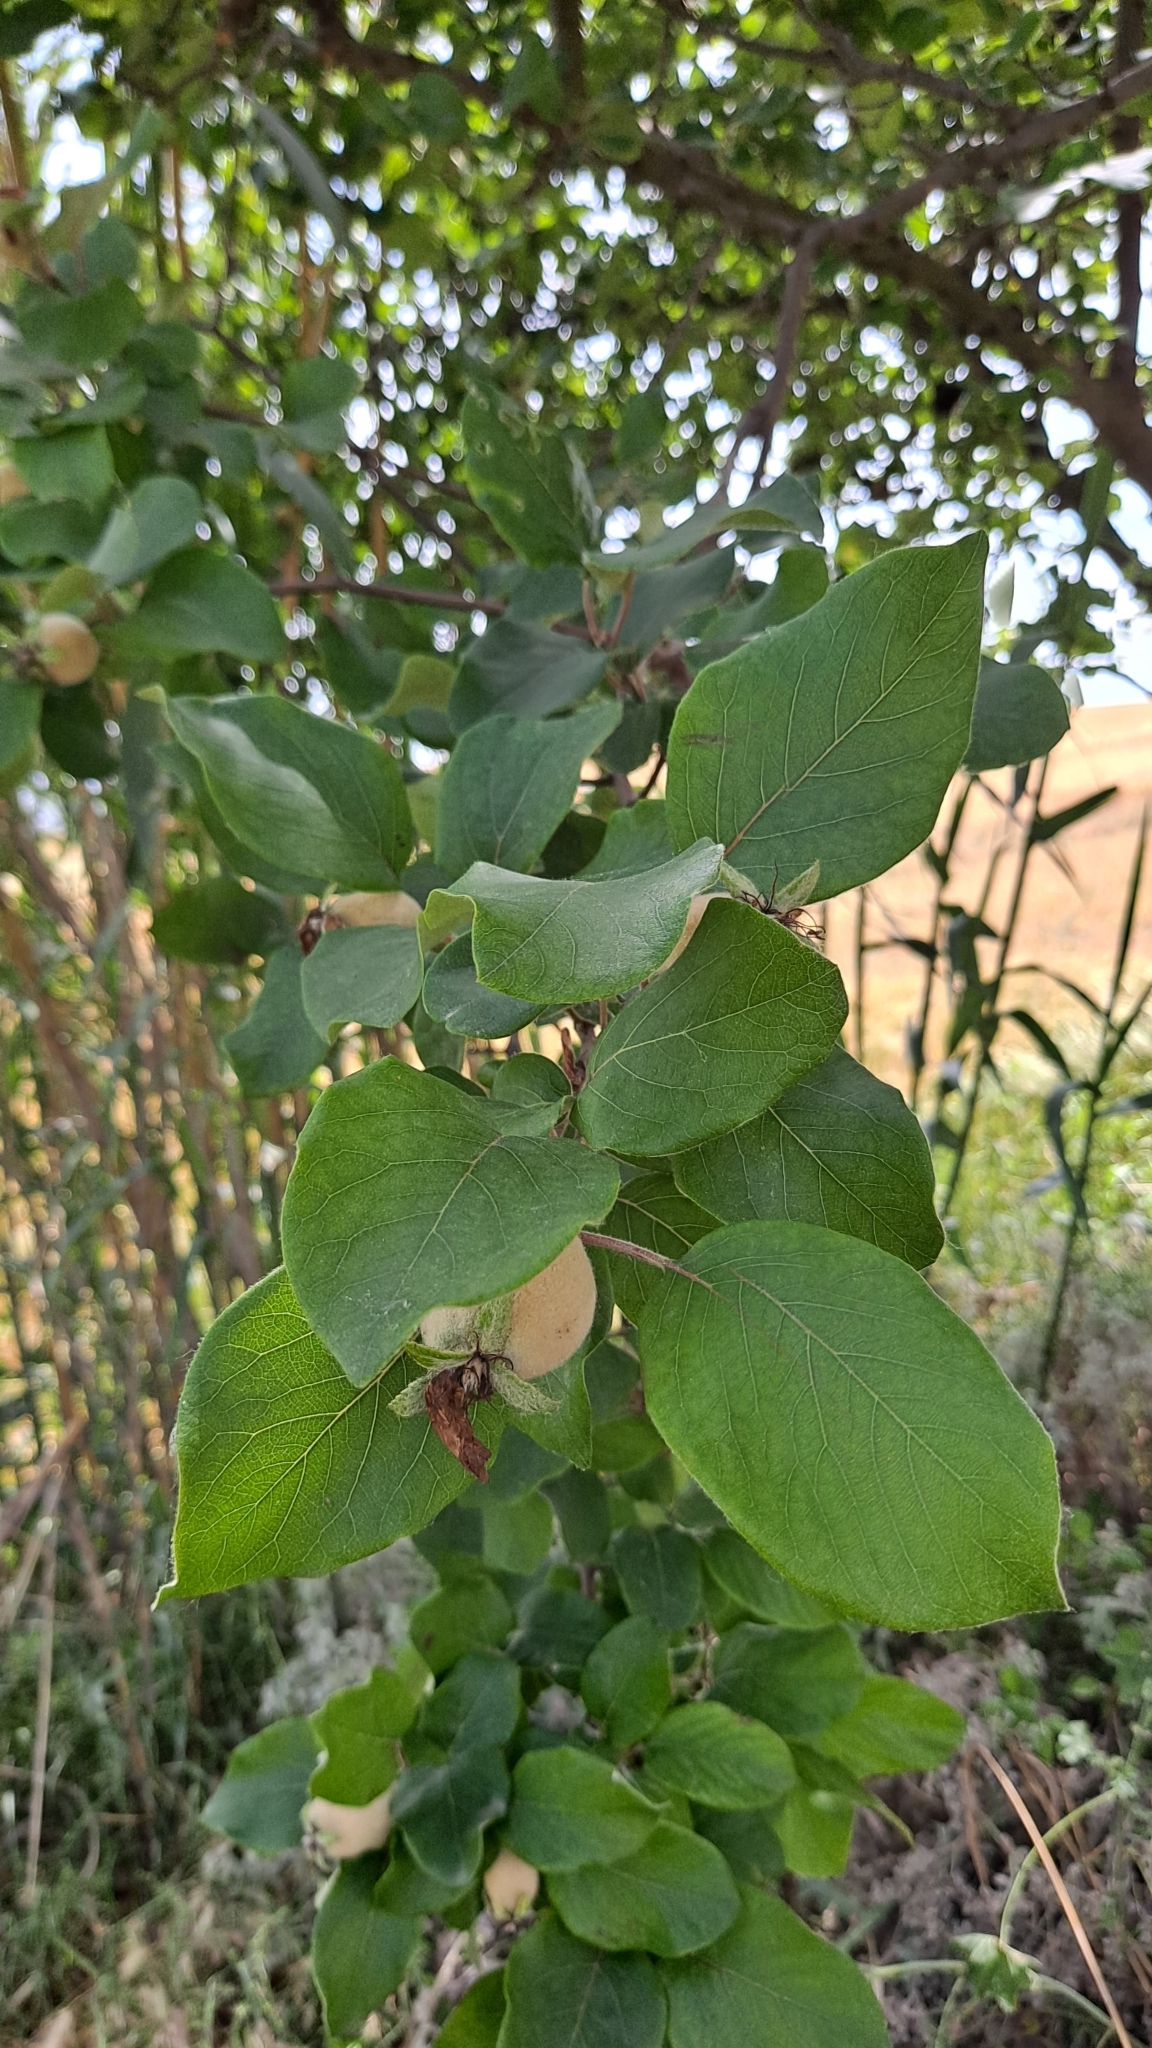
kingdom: Plantae
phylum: Tracheophyta
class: Magnoliopsida
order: Rosales
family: Rosaceae
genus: Cydonia
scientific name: Cydonia oblonga
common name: Quince
